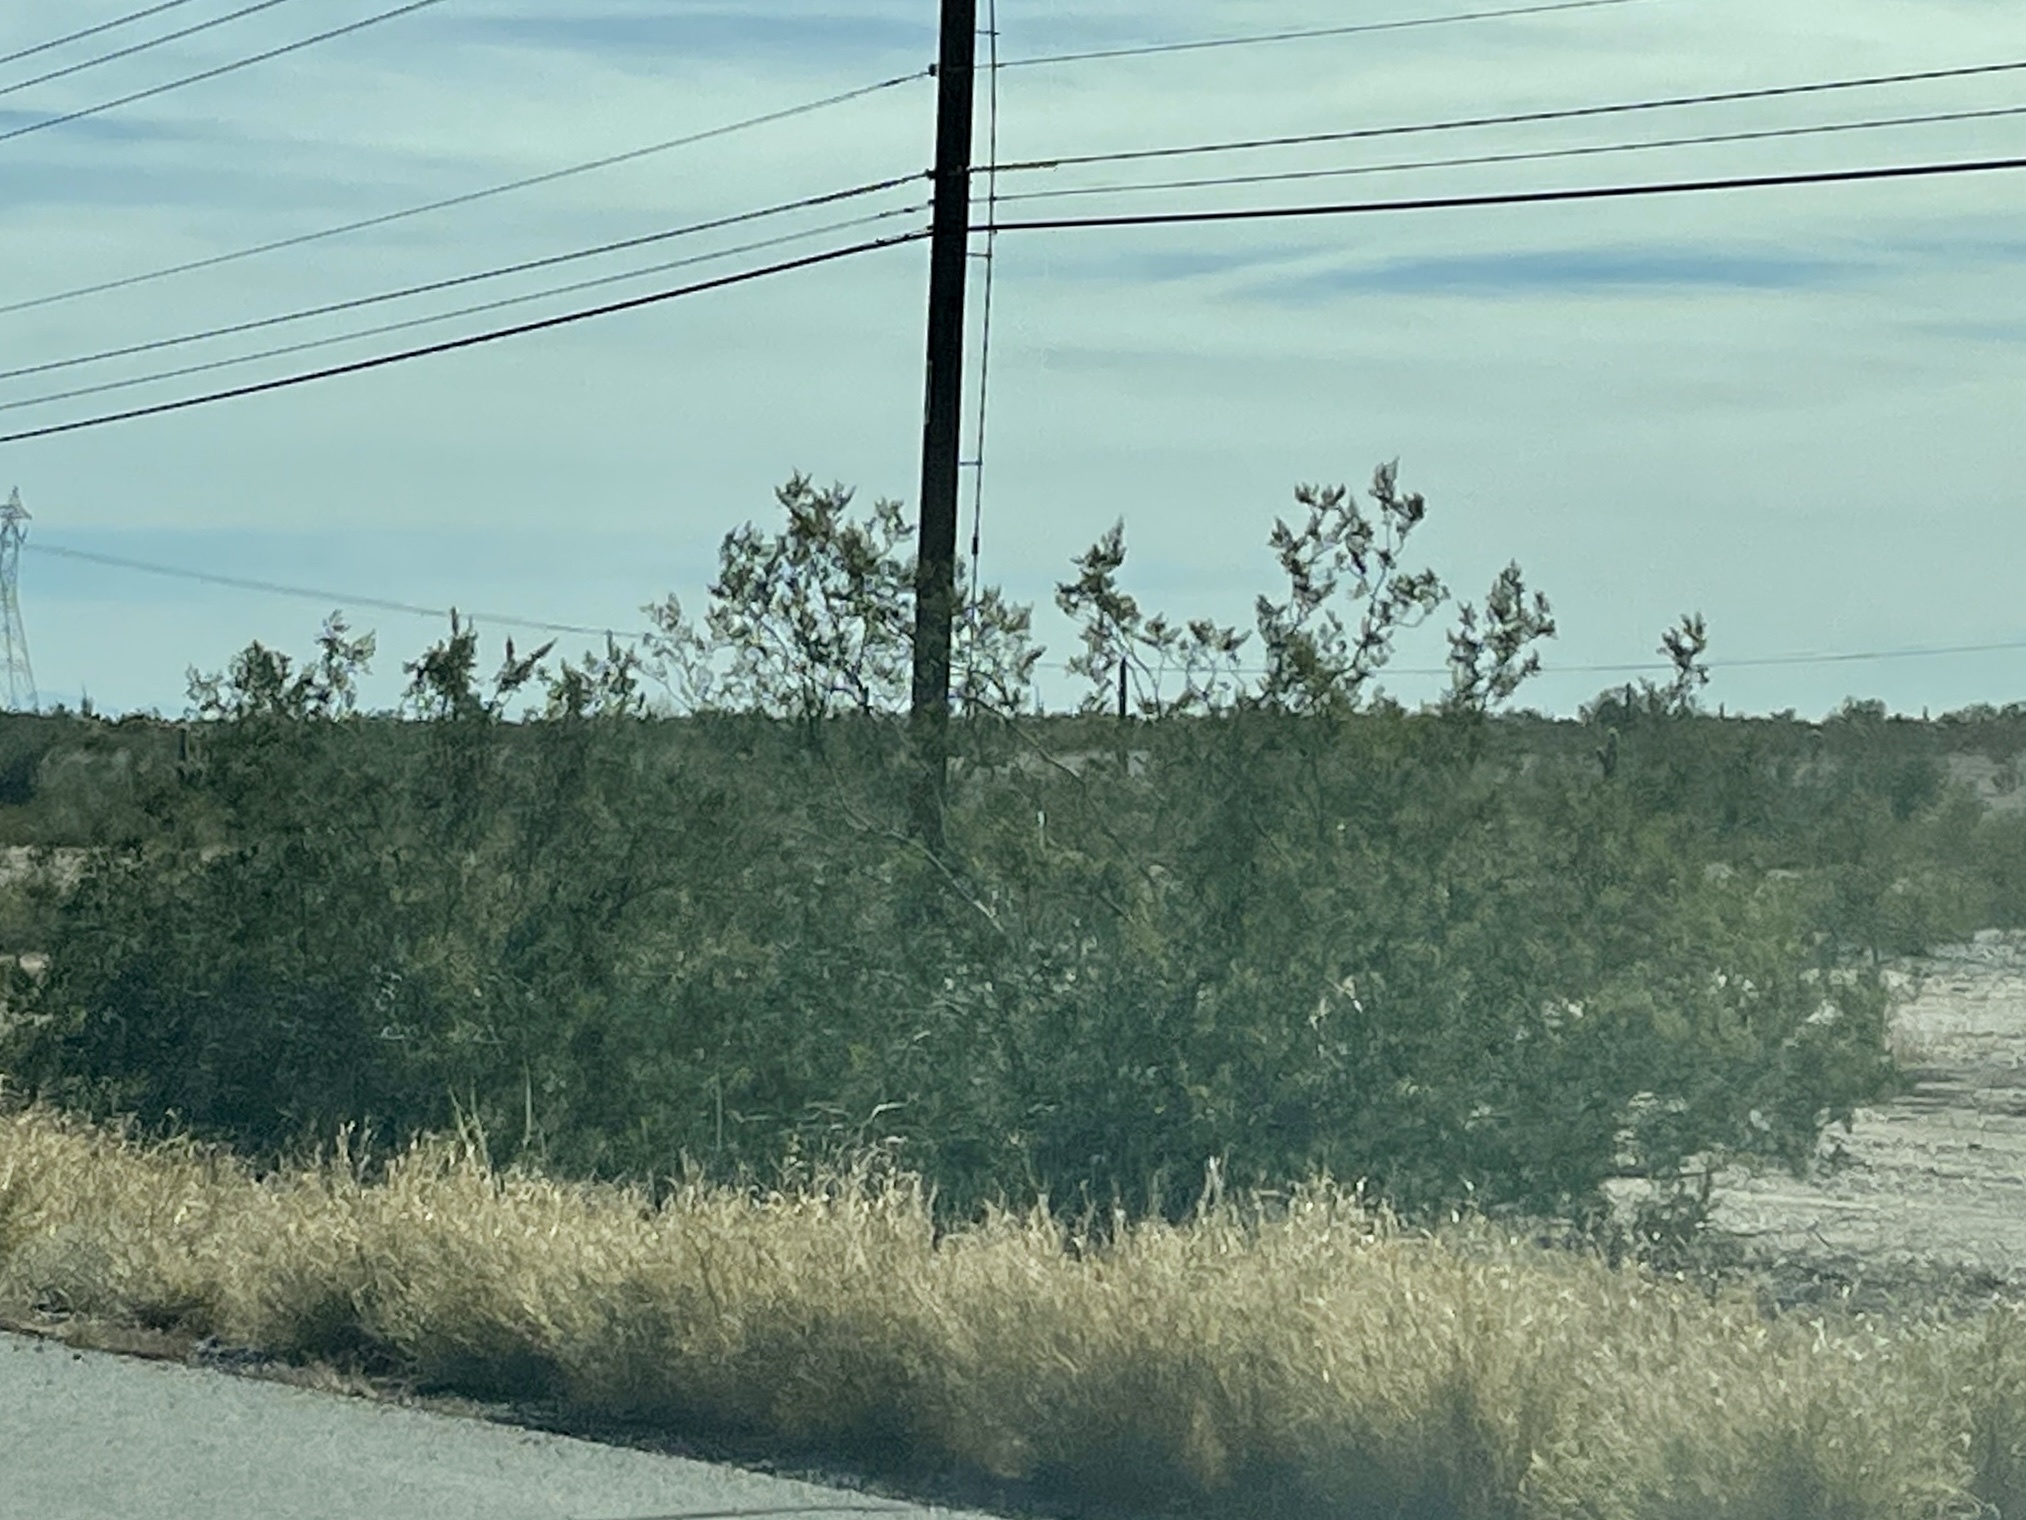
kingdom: Plantae
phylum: Tracheophyta
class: Magnoliopsida
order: Zygophyllales
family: Zygophyllaceae
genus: Larrea
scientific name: Larrea tridentata
